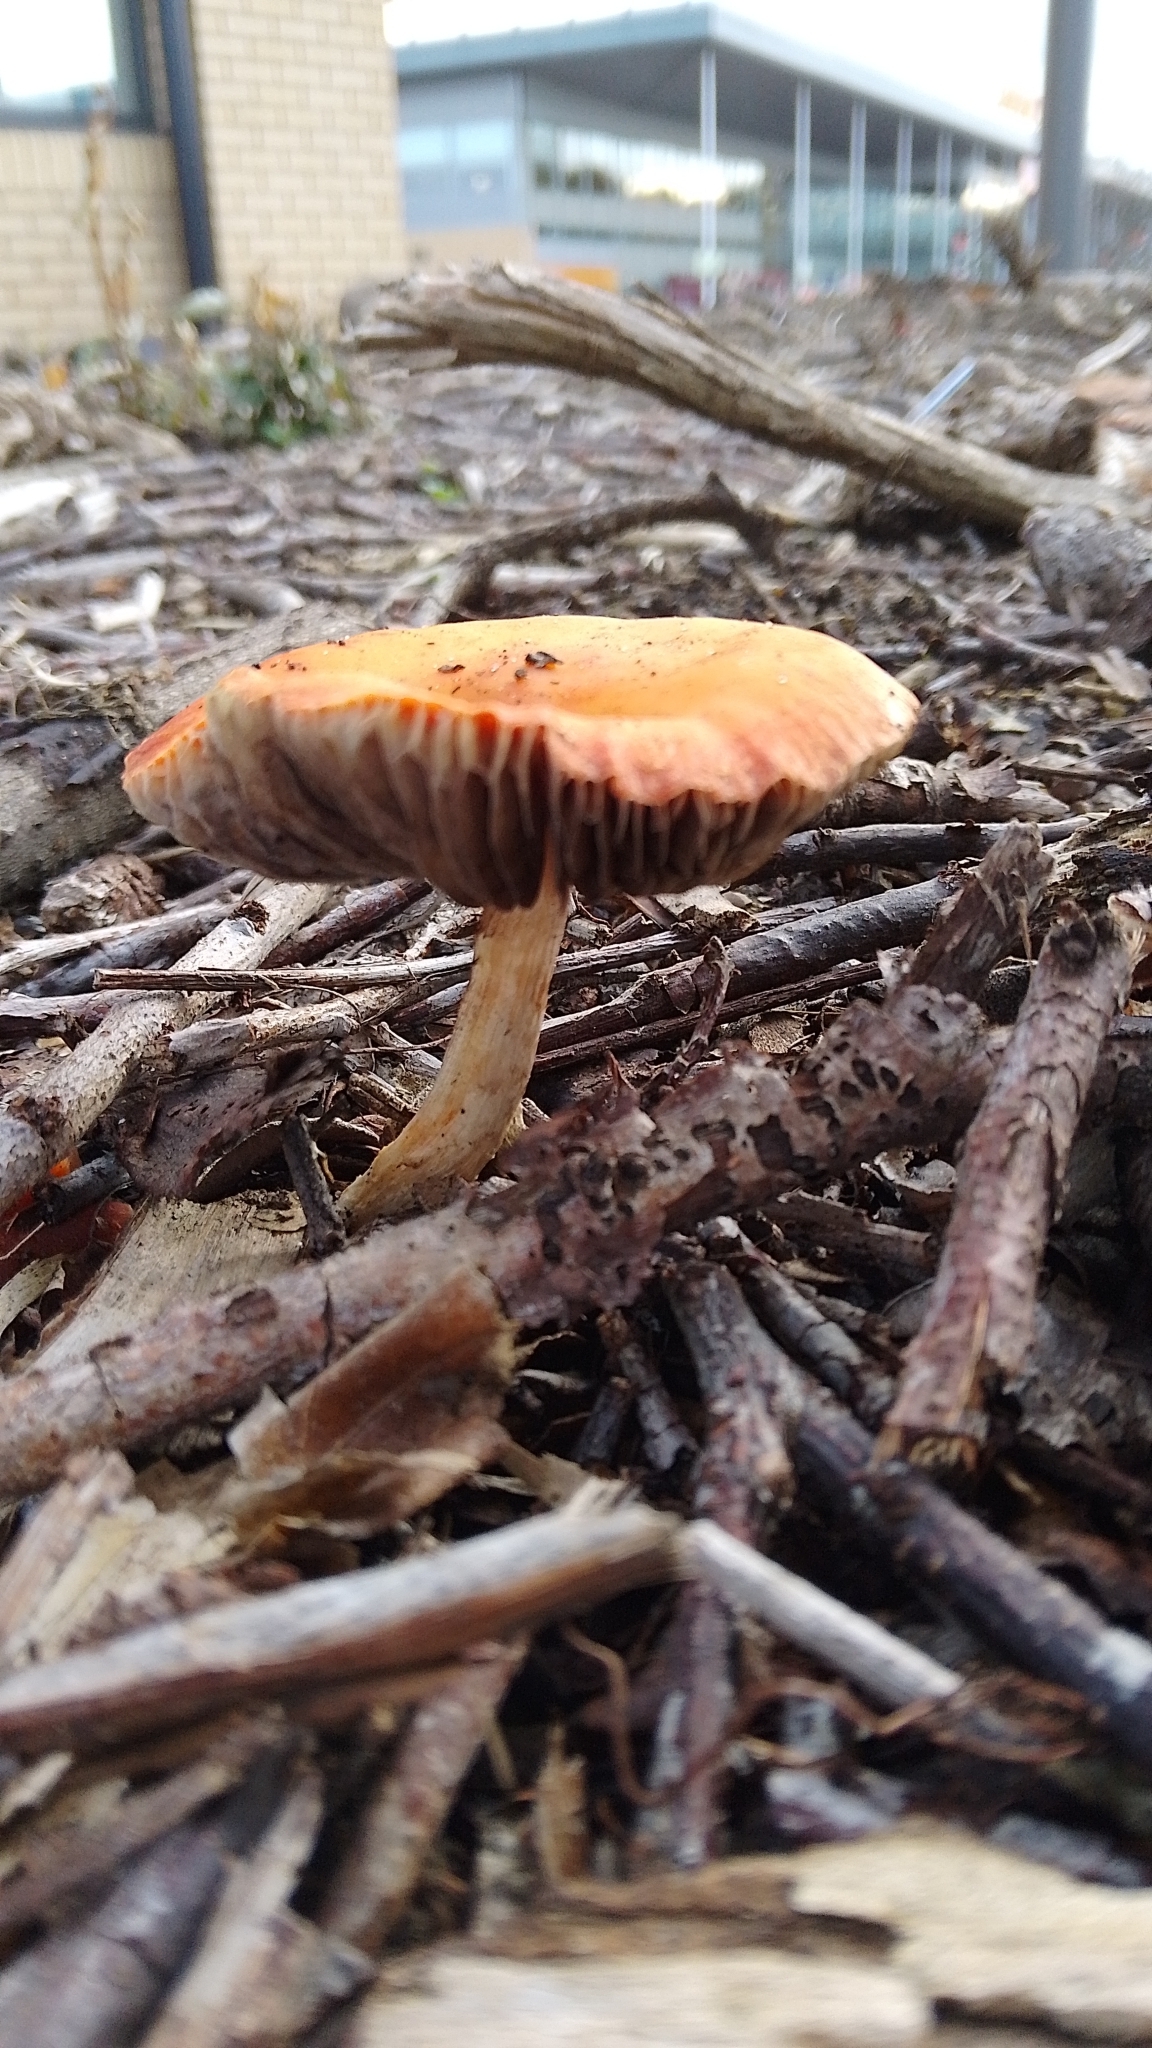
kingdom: Fungi
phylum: Basidiomycota
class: Agaricomycetes
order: Agaricales
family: Strophariaceae
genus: Leratiomyces
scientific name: Leratiomyces ceres
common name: Redlead roundhead
